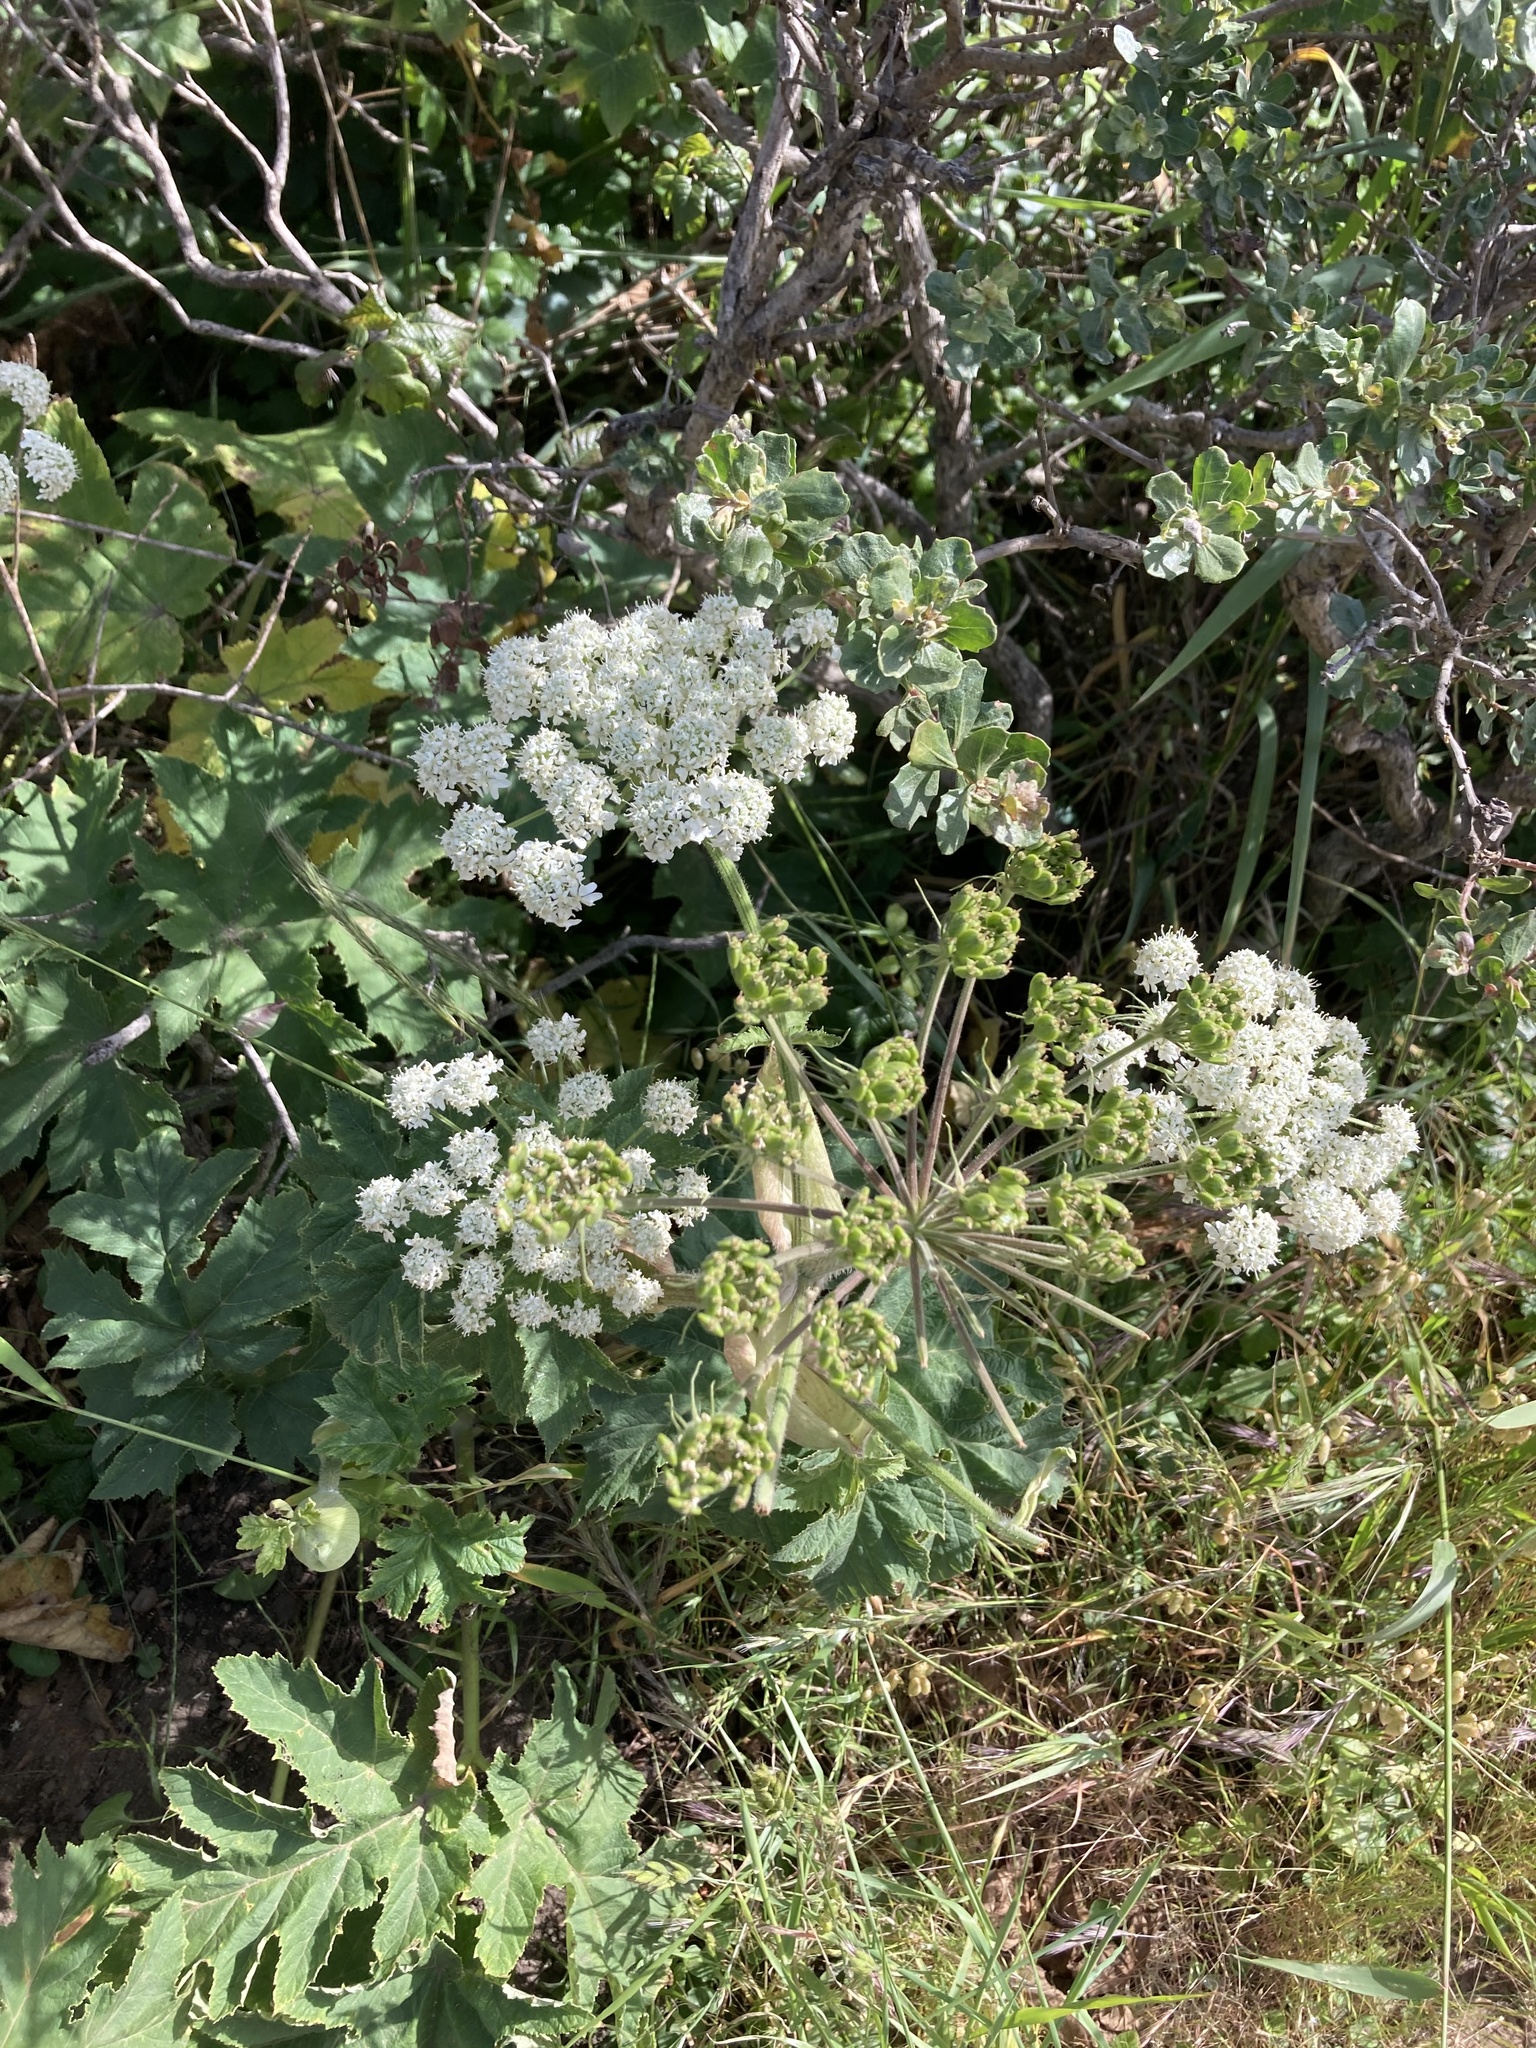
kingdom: Plantae
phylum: Tracheophyta
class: Magnoliopsida
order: Apiales
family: Apiaceae
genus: Heracleum
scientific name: Heracleum maximum
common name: American cow parsnip
